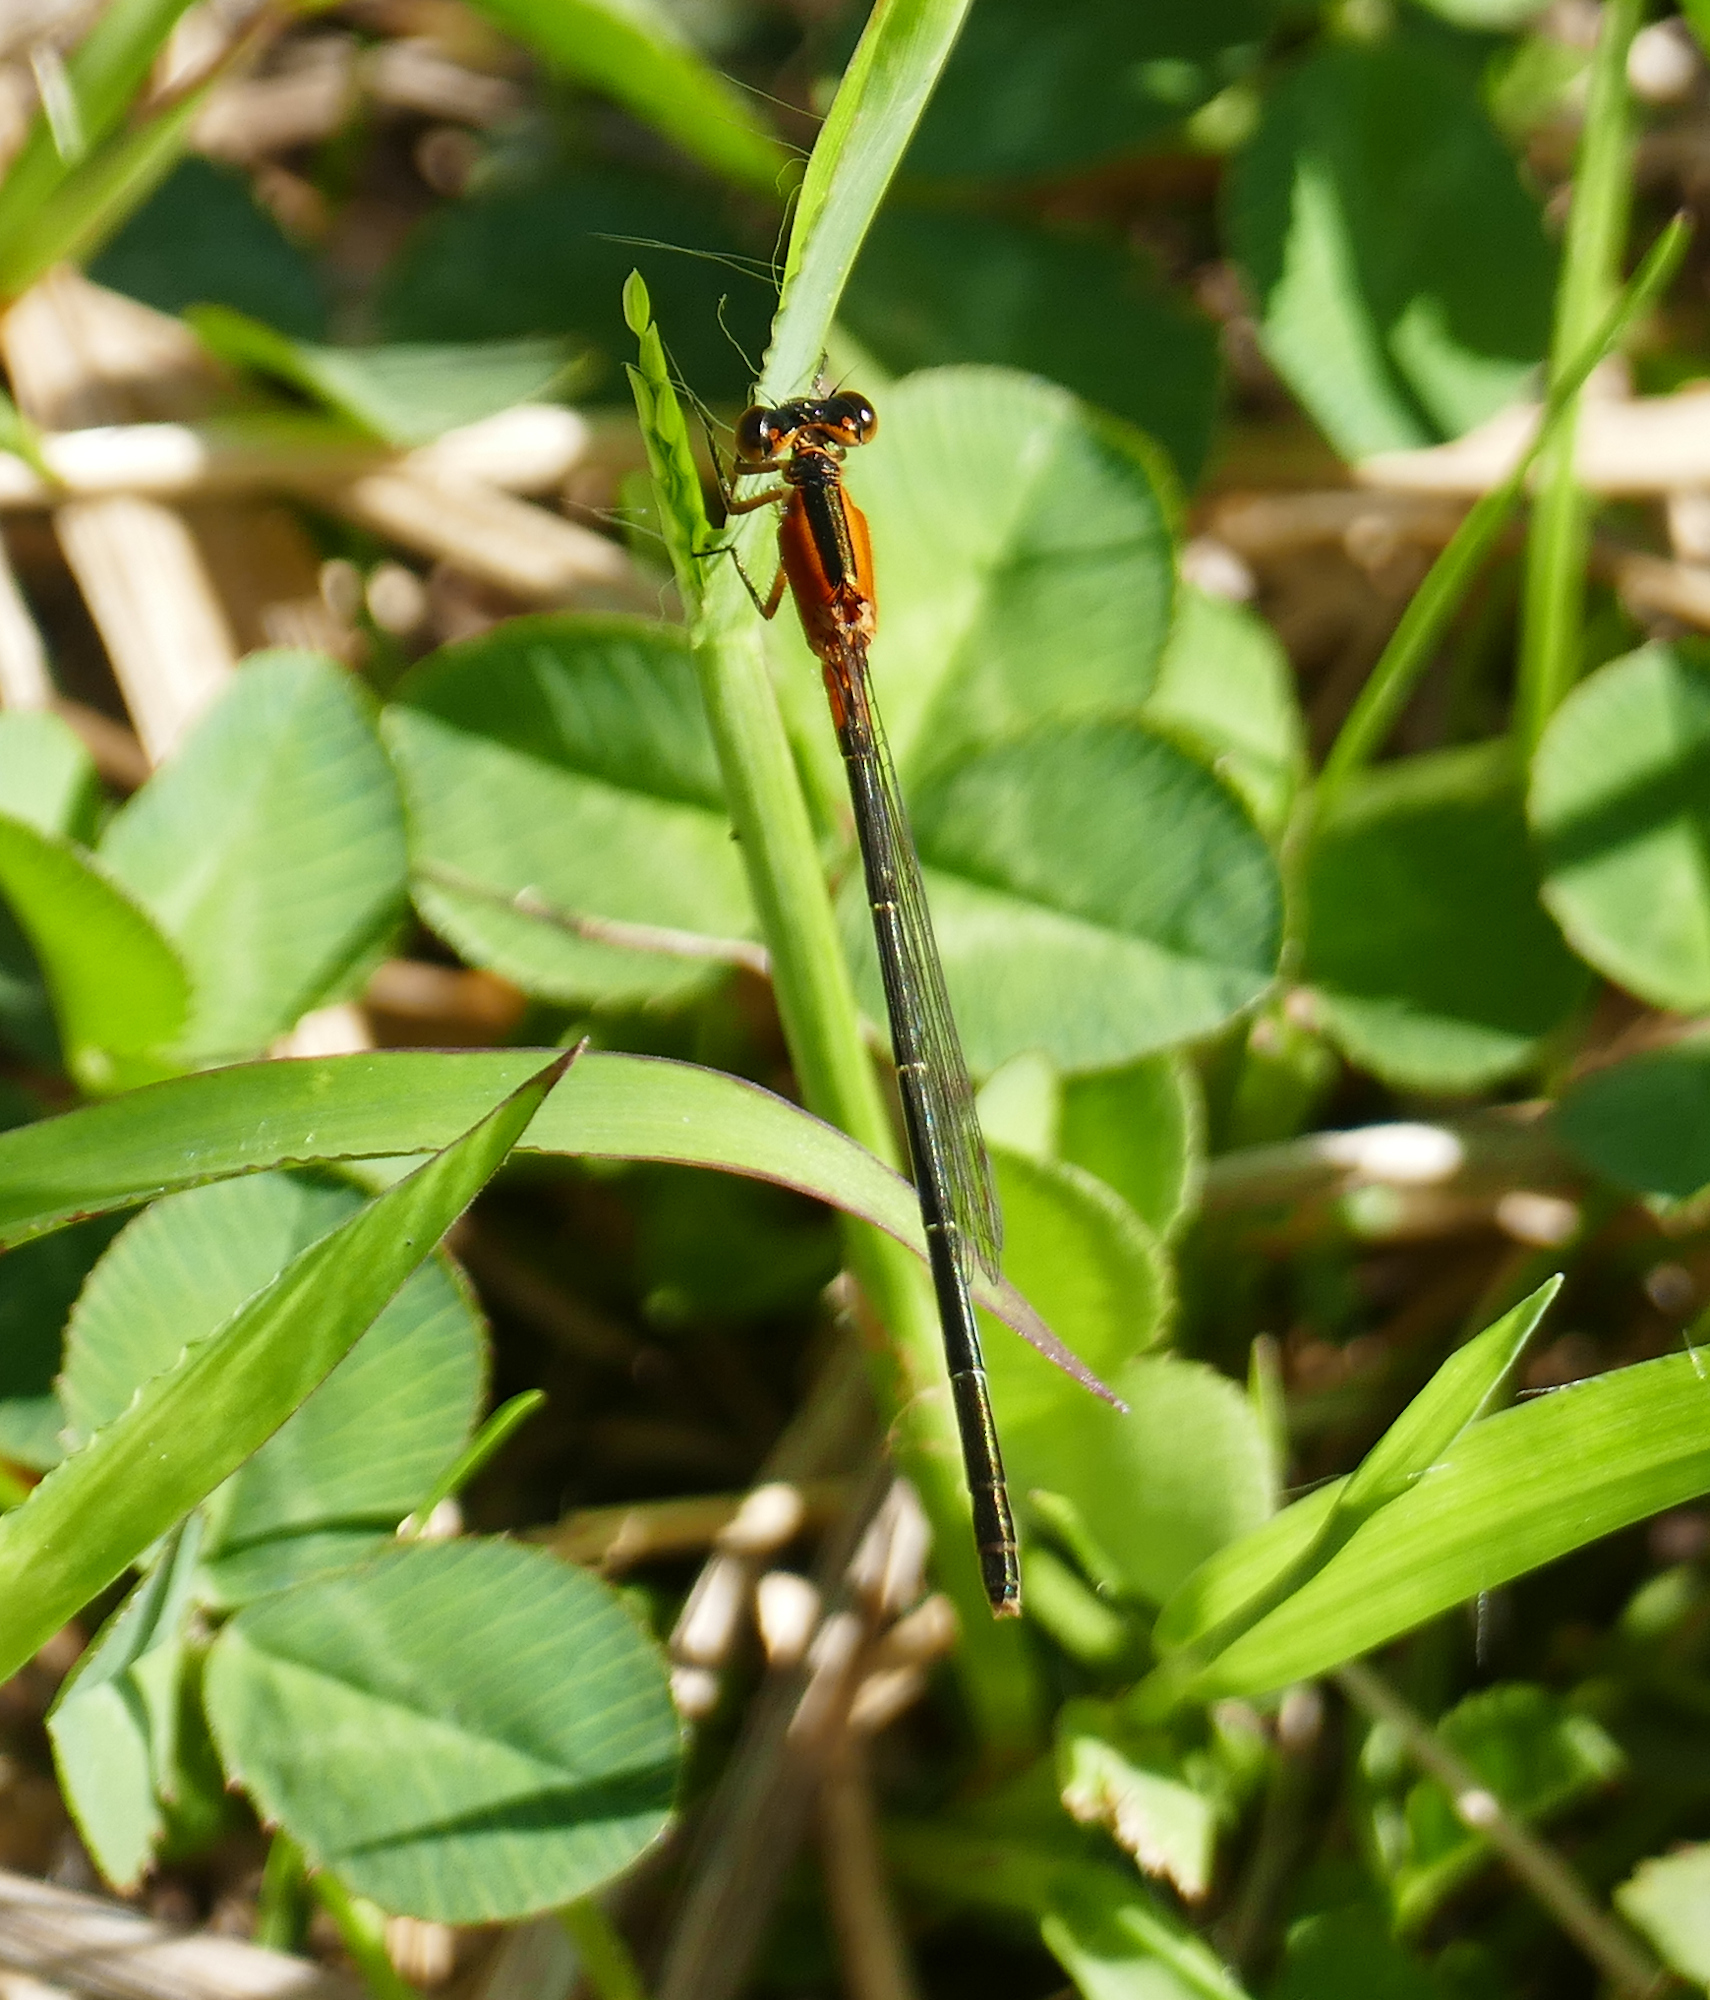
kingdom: Animalia
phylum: Arthropoda
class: Insecta
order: Odonata
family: Coenagrionidae
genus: Ischnura
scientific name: Ischnura ramburii
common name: Rambur's forktail
